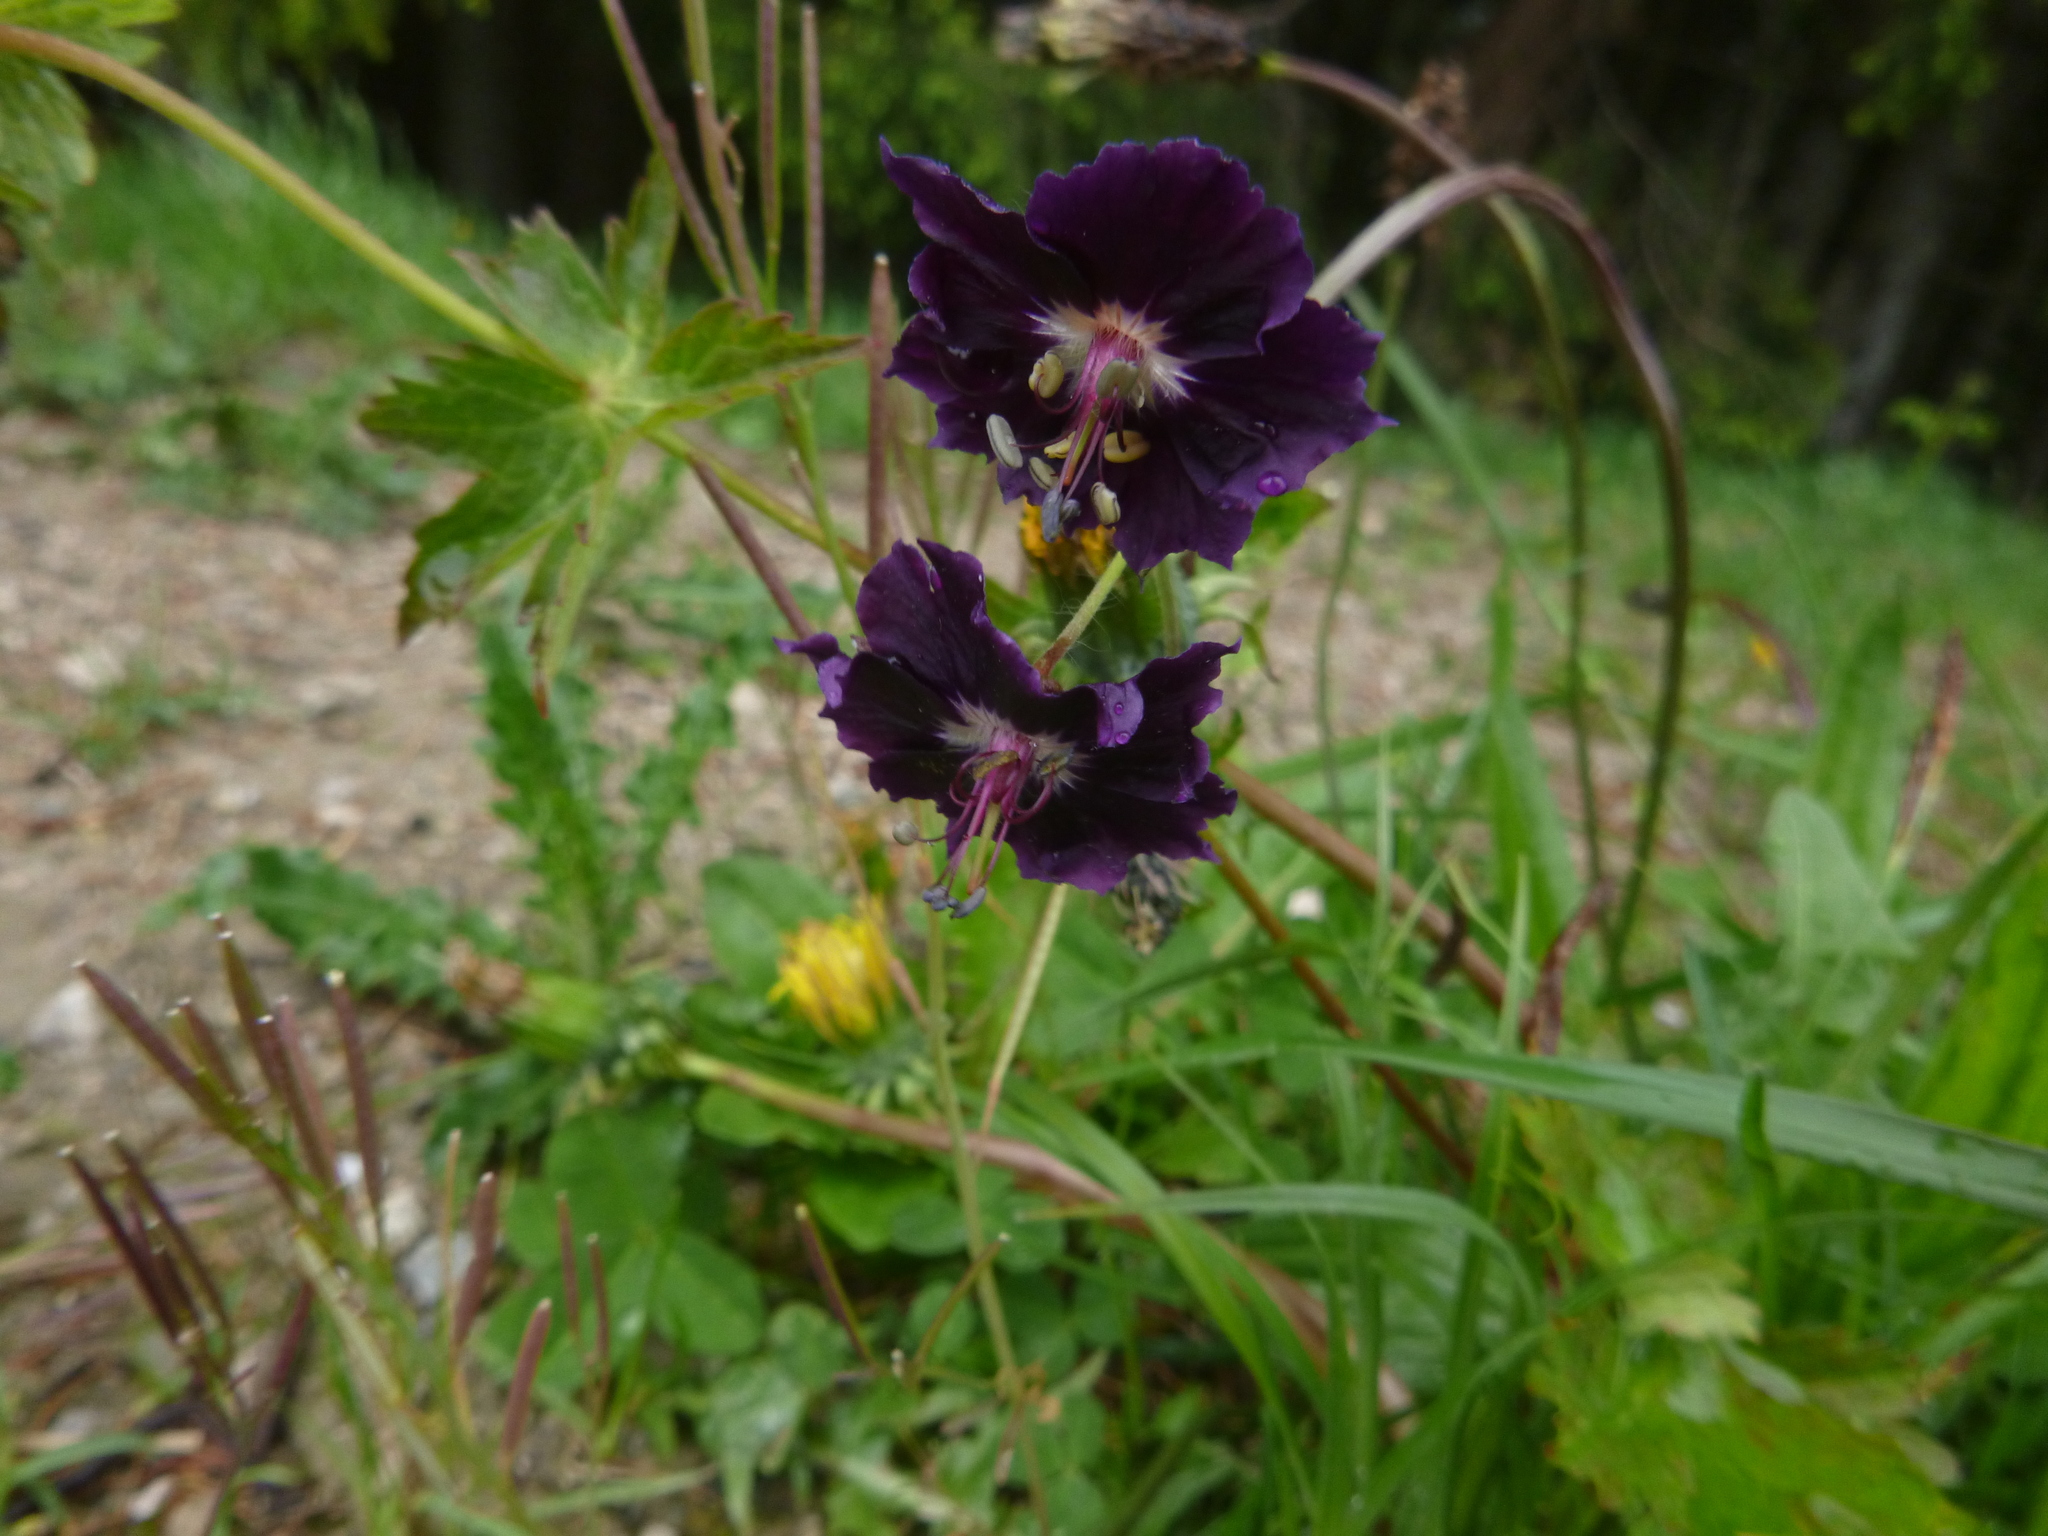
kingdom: Plantae
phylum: Tracheophyta
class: Magnoliopsida
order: Geraniales
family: Geraniaceae
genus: Geranium
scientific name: Geranium phaeum
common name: Dusky crane's-bill
